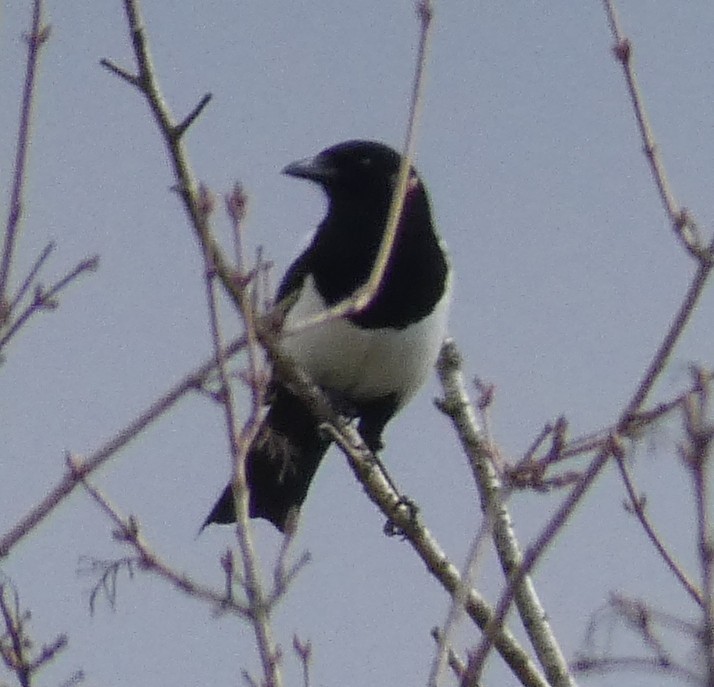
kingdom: Animalia
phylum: Chordata
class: Aves
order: Passeriformes
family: Corvidae
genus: Pica
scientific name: Pica pica
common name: Eurasian magpie
